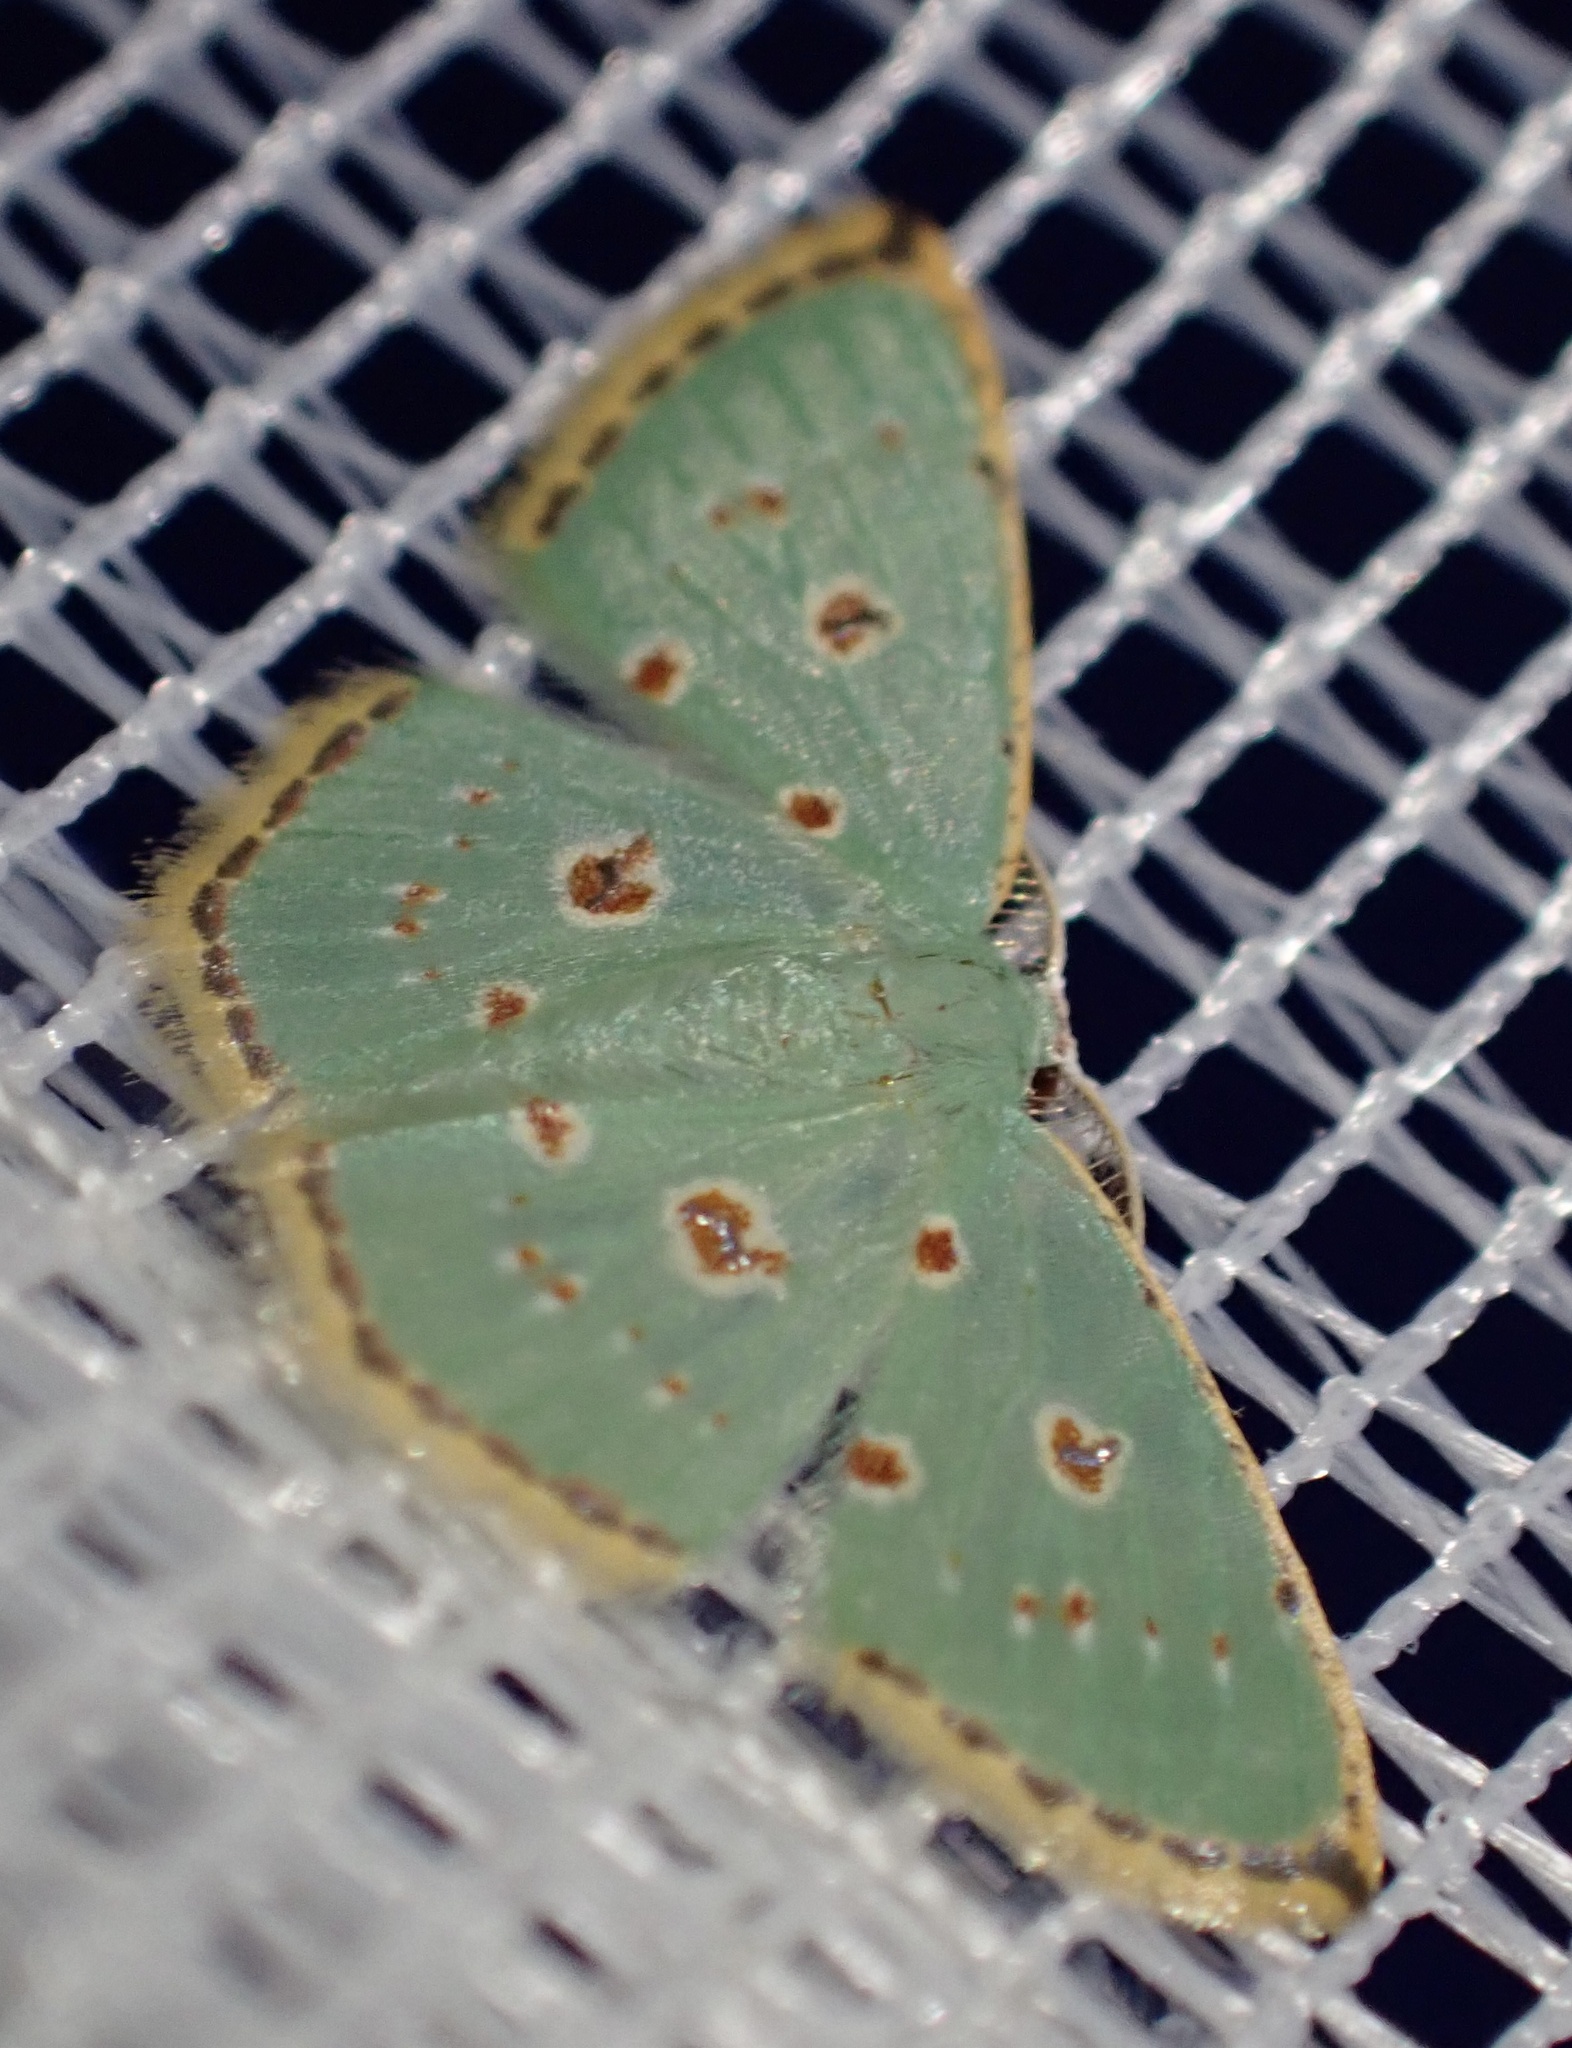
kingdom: Animalia
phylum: Arthropoda
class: Insecta
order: Lepidoptera
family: Geometridae
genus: Comostola
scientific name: Comostola laesaria
